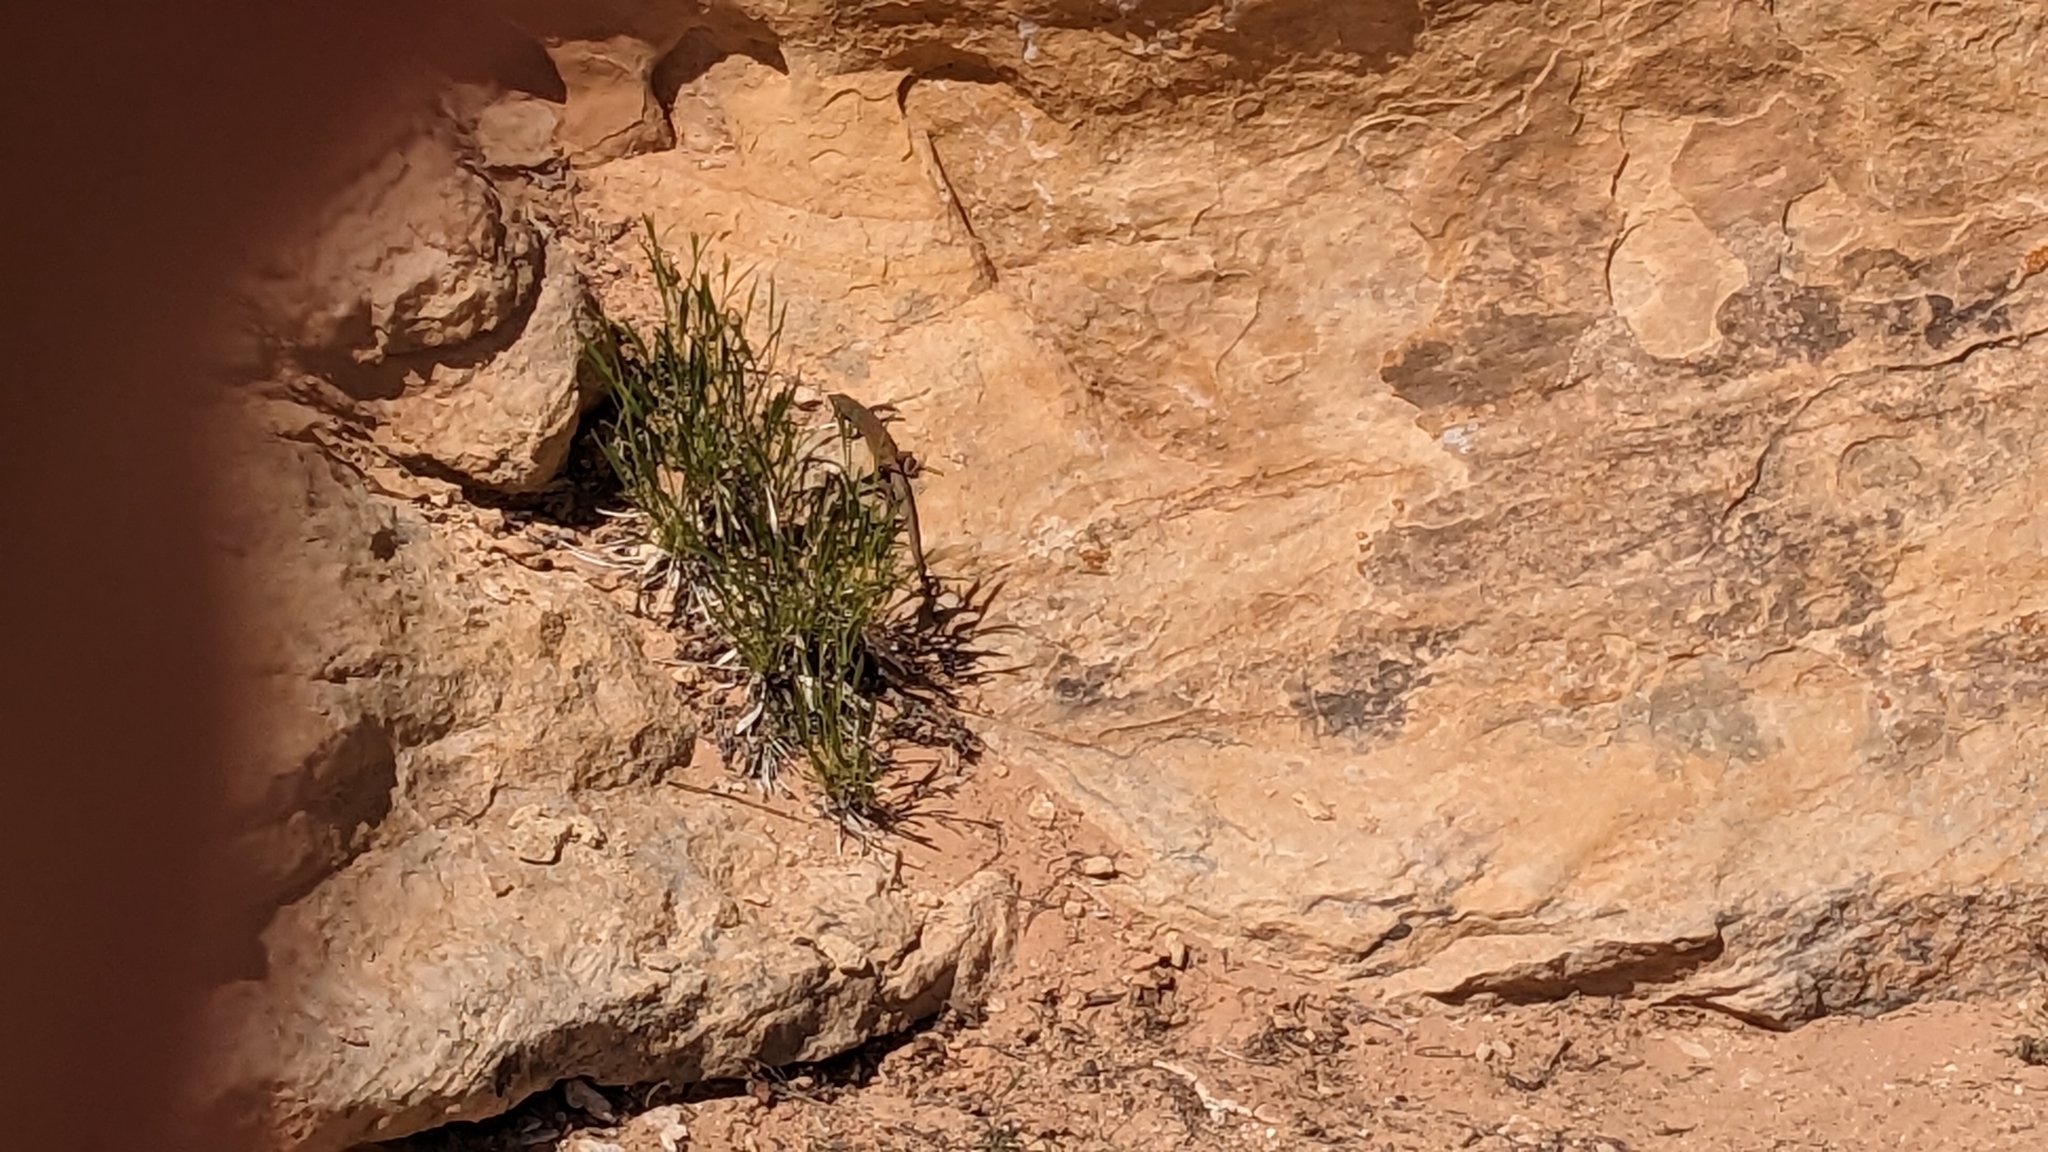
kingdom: Animalia
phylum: Chordata
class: Squamata
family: Teiidae
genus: Aspidoscelis
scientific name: Aspidoscelis tigris
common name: Tiger whiptail
